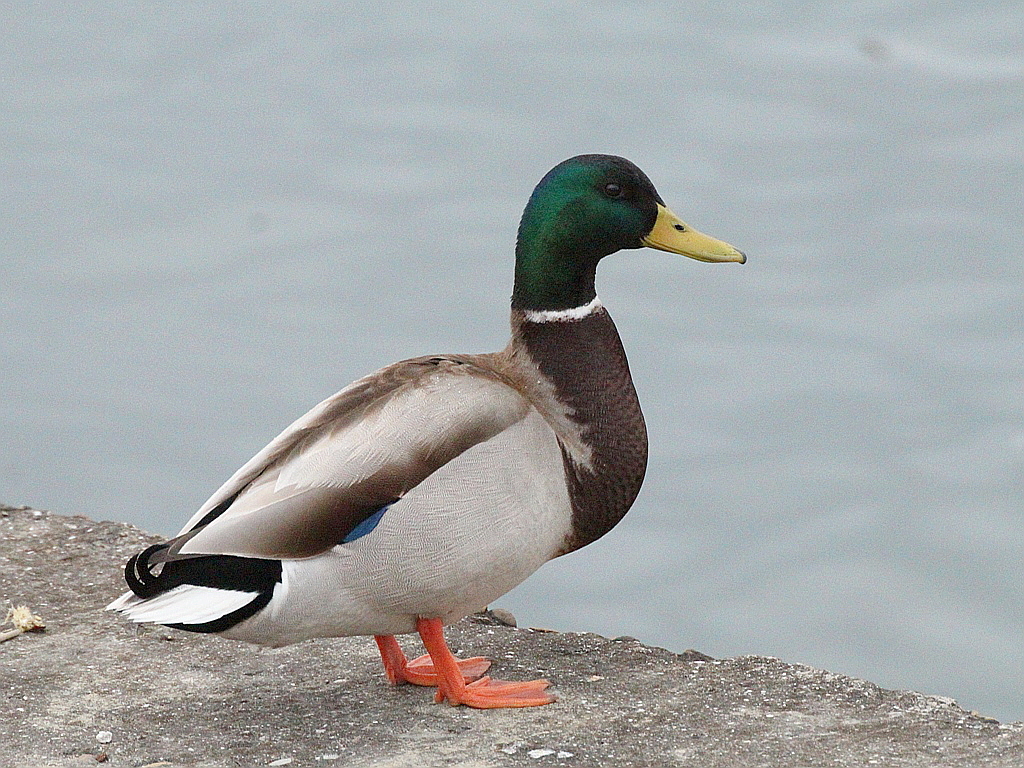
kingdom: Animalia
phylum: Chordata
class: Aves
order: Anseriformes
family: Anatidae
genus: Anas
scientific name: Anas platyrhynchos
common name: Mallard
